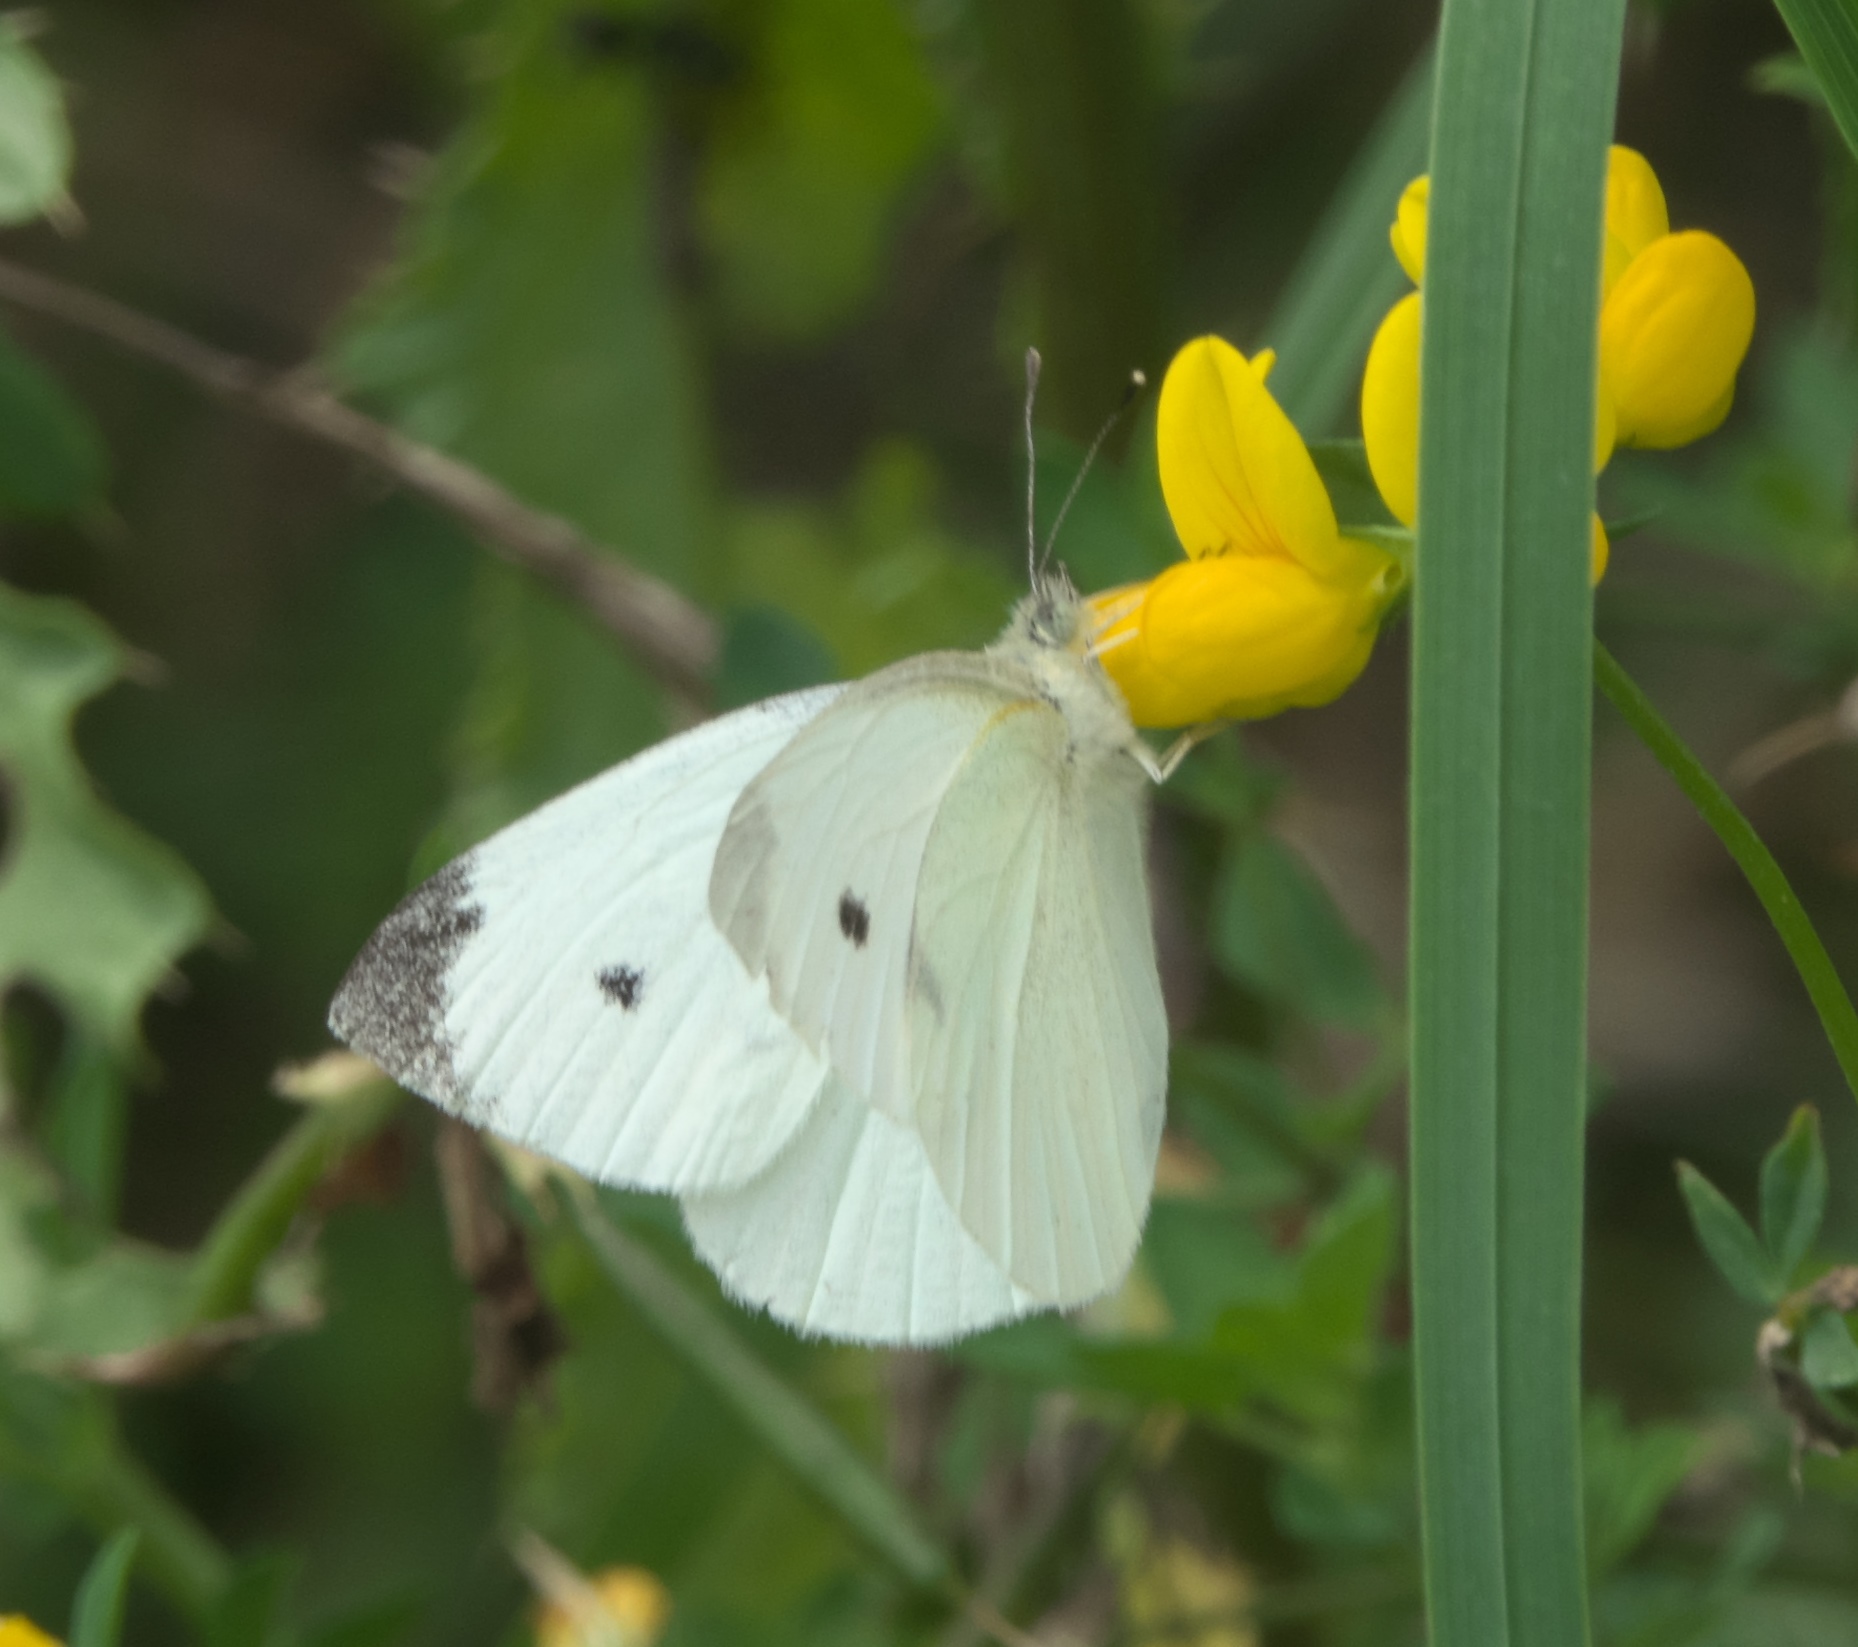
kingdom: Animalia
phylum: Arthropoda
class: Insecta
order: Lepidoptera
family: Pieridae
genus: Pieris
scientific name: Pieris rapae
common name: Small white
